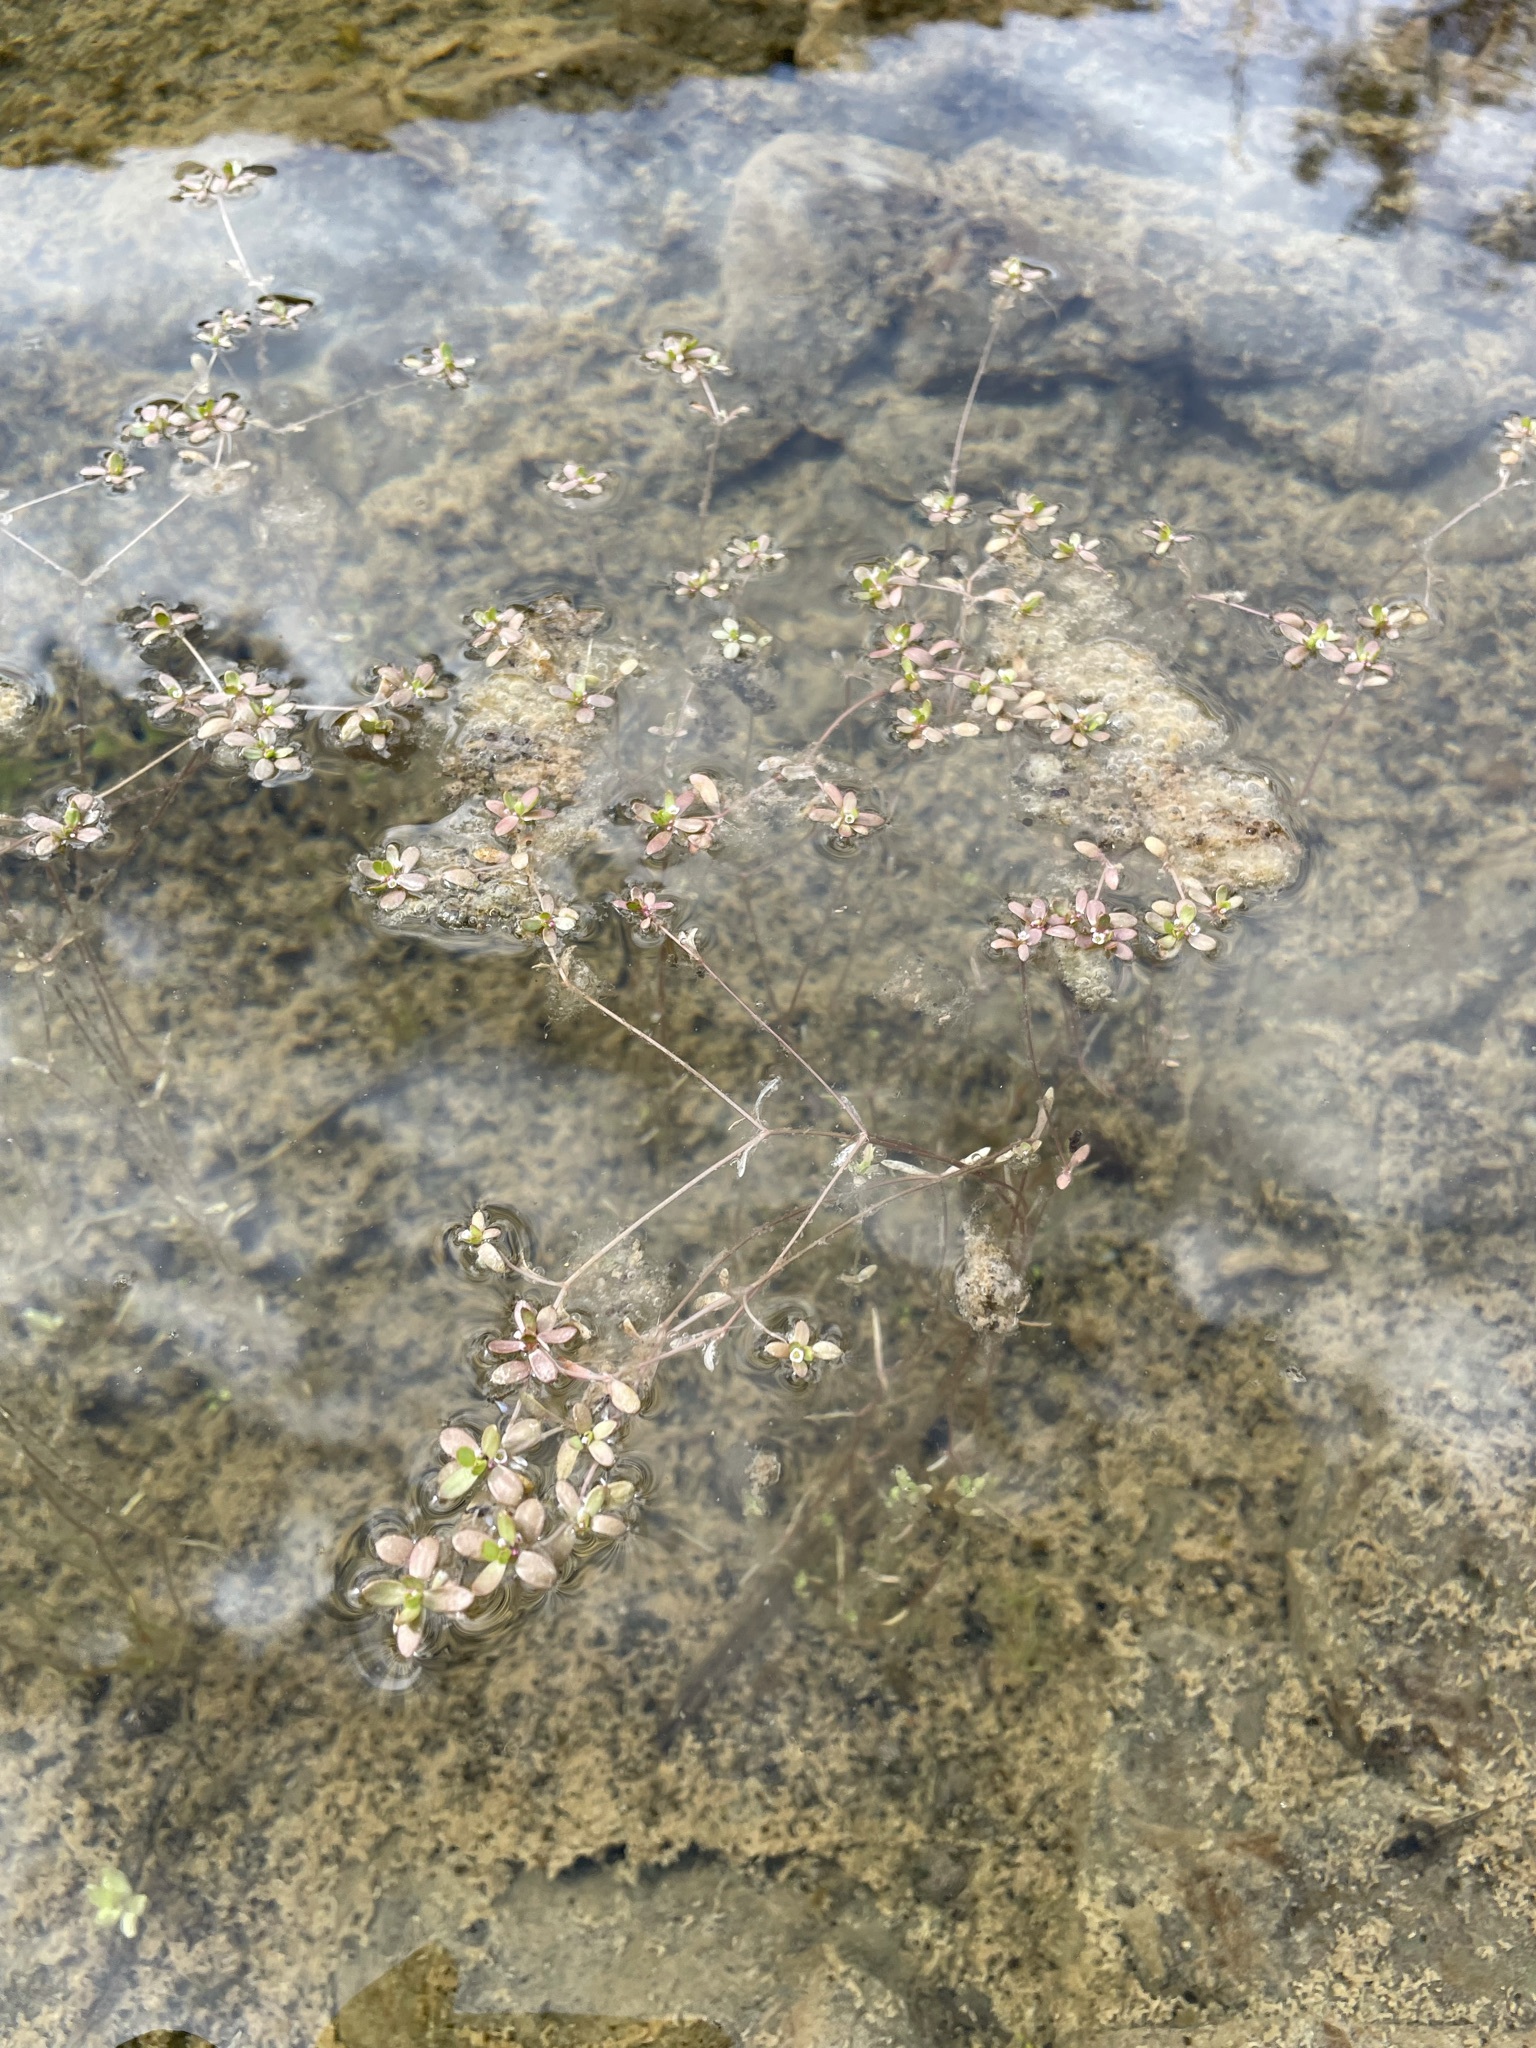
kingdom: Plantae
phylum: Tracheophyta
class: Magnoliopsida
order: Saxifragales
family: Crassulaceae
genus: Crassula
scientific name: Crassula natans
